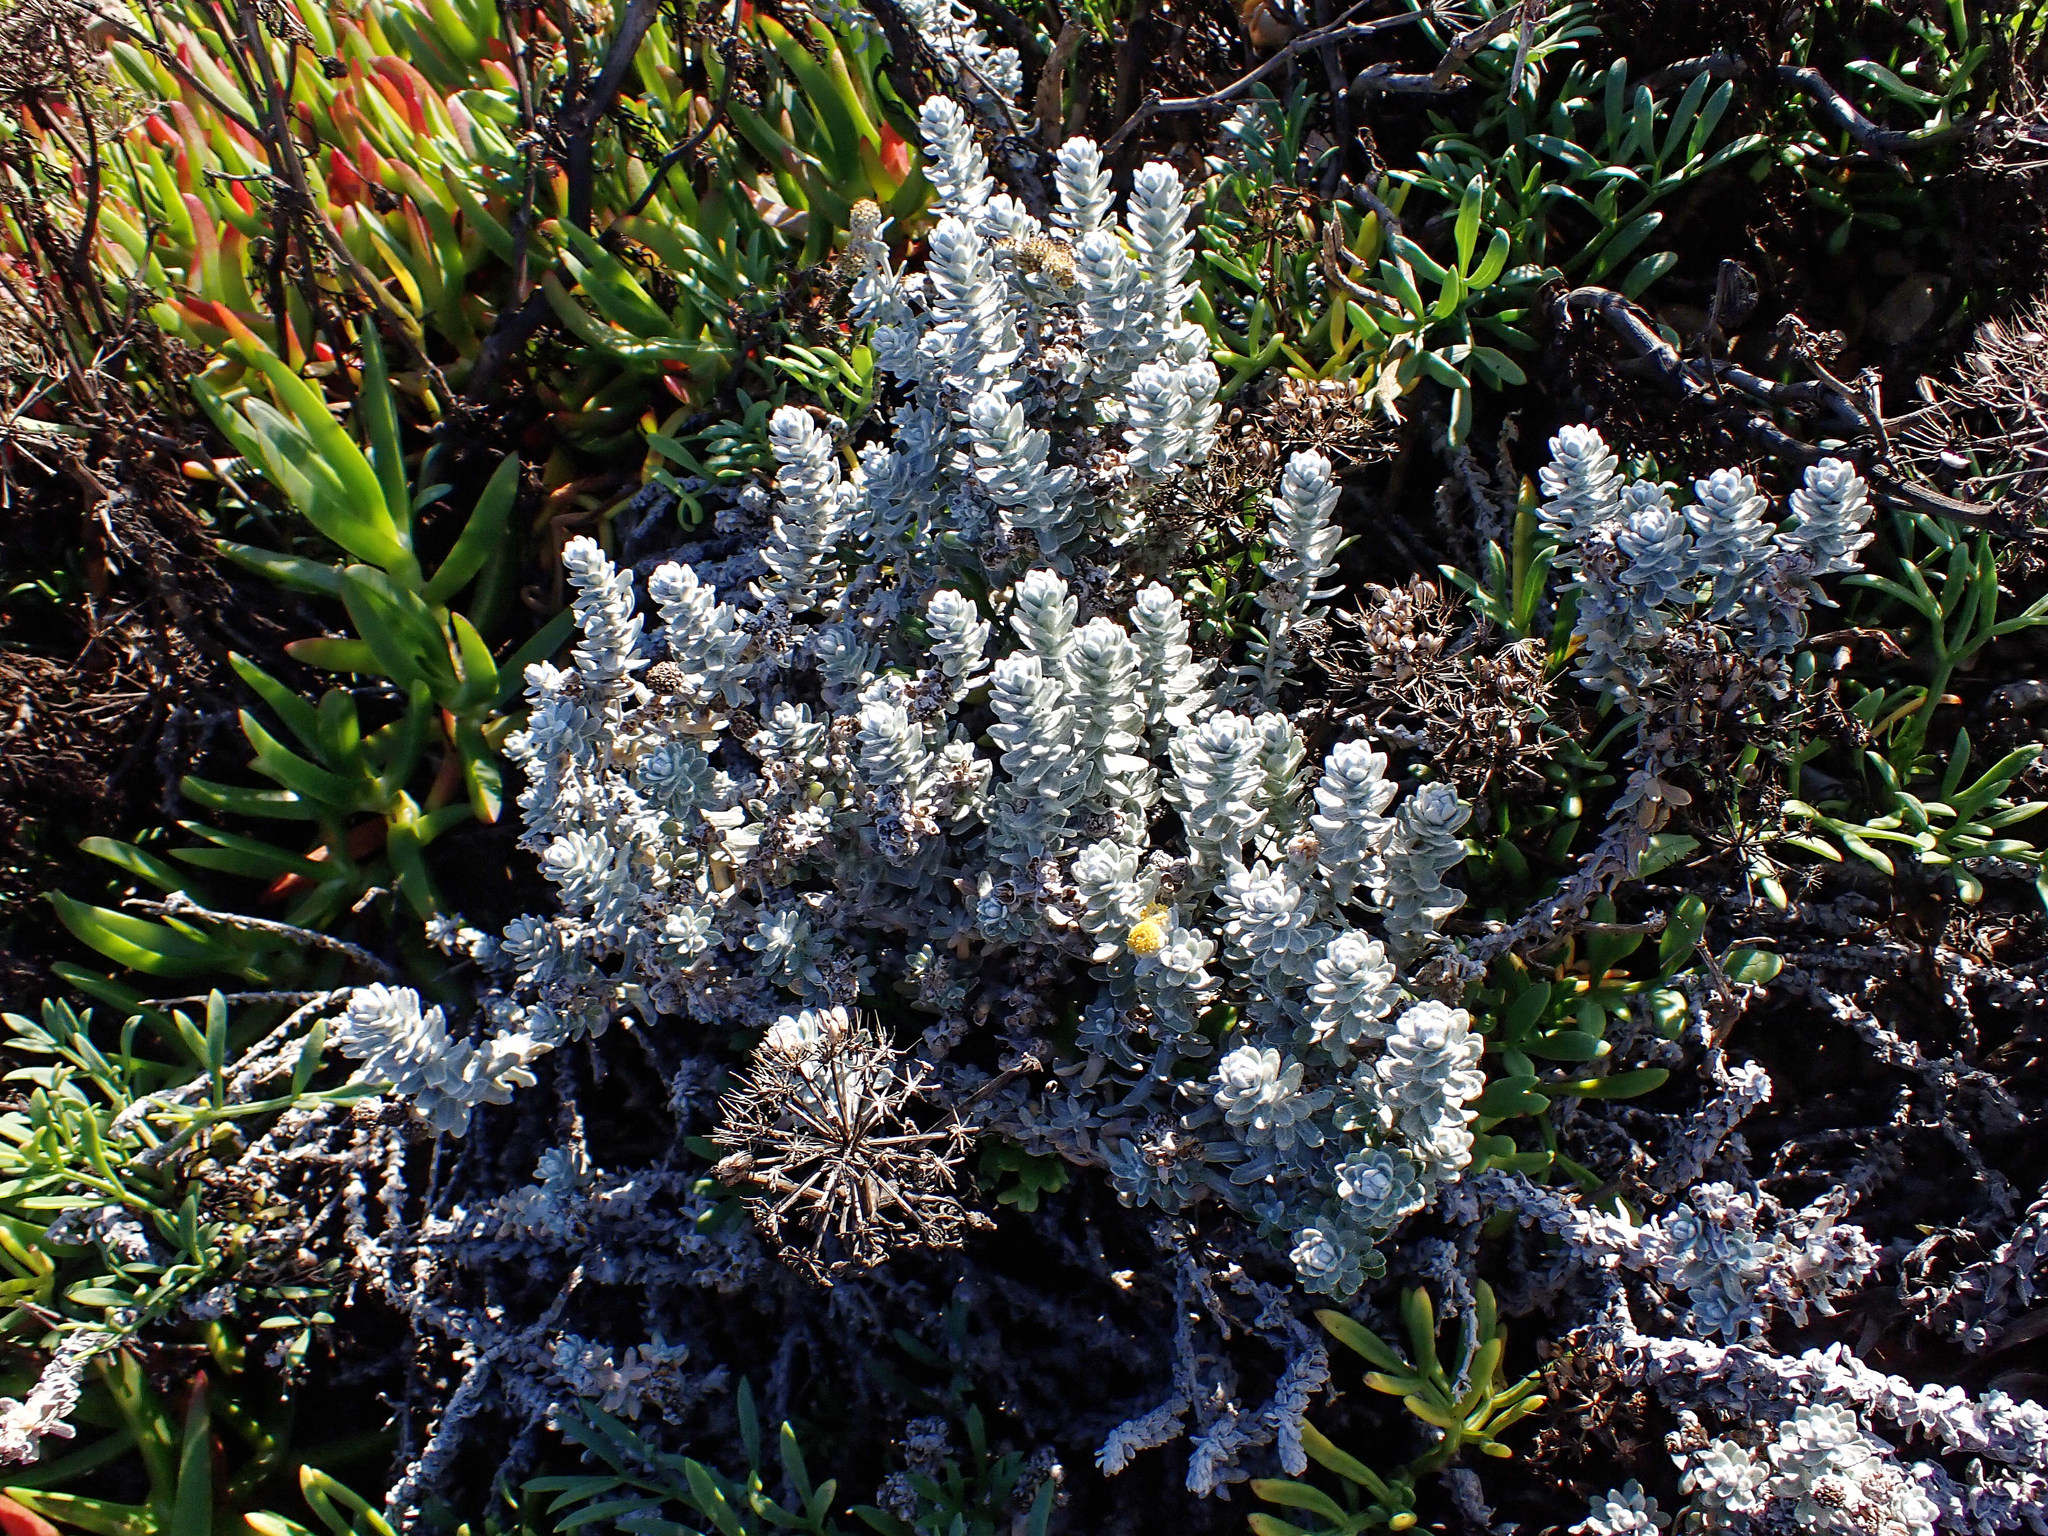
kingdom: Plantae
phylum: Tracheophyta
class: Magnoliopsida
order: Asterales
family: Asteraceae
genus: Achillea
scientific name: Achillea maritima
